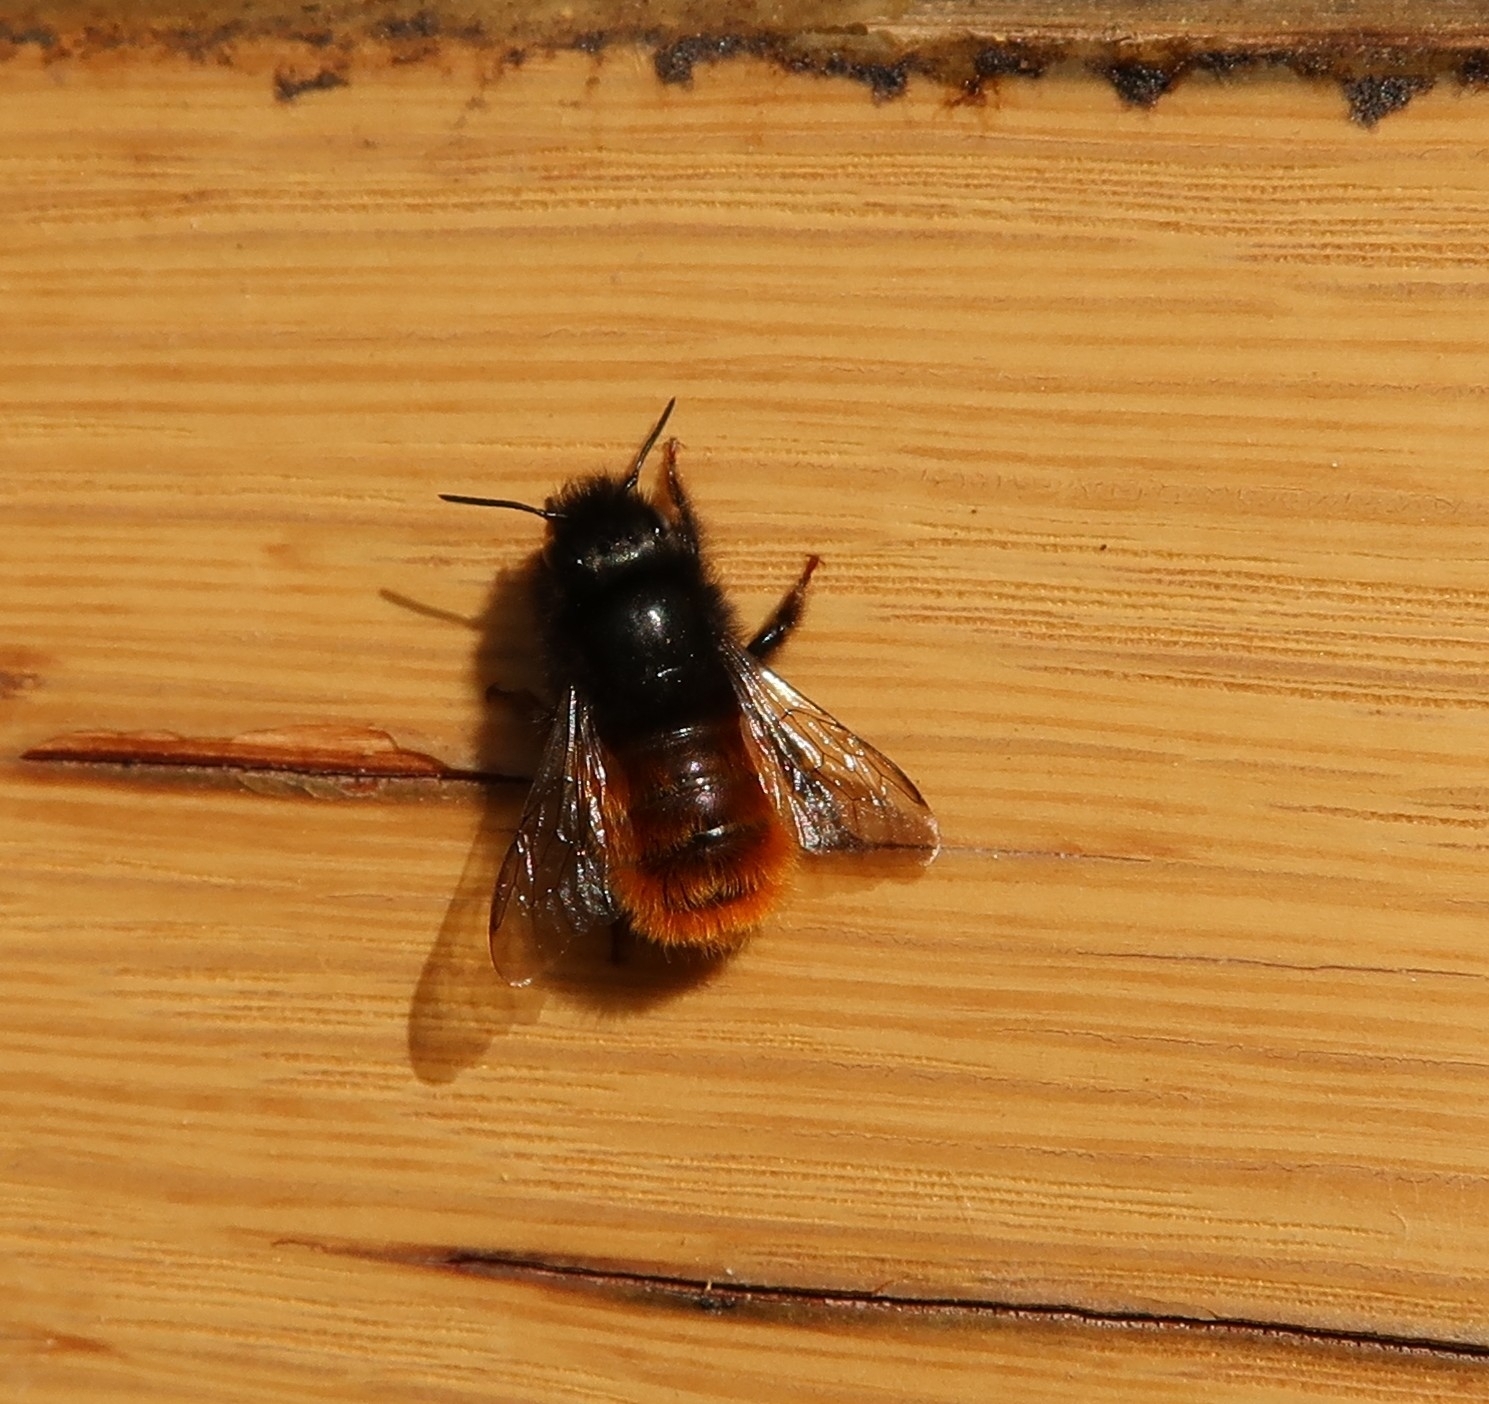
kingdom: Animalia
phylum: Arthropoda
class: Insecta
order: Hymenoptera
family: Megachilidae
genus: Osmia
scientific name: Osmia cornuta
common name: Mason bee
